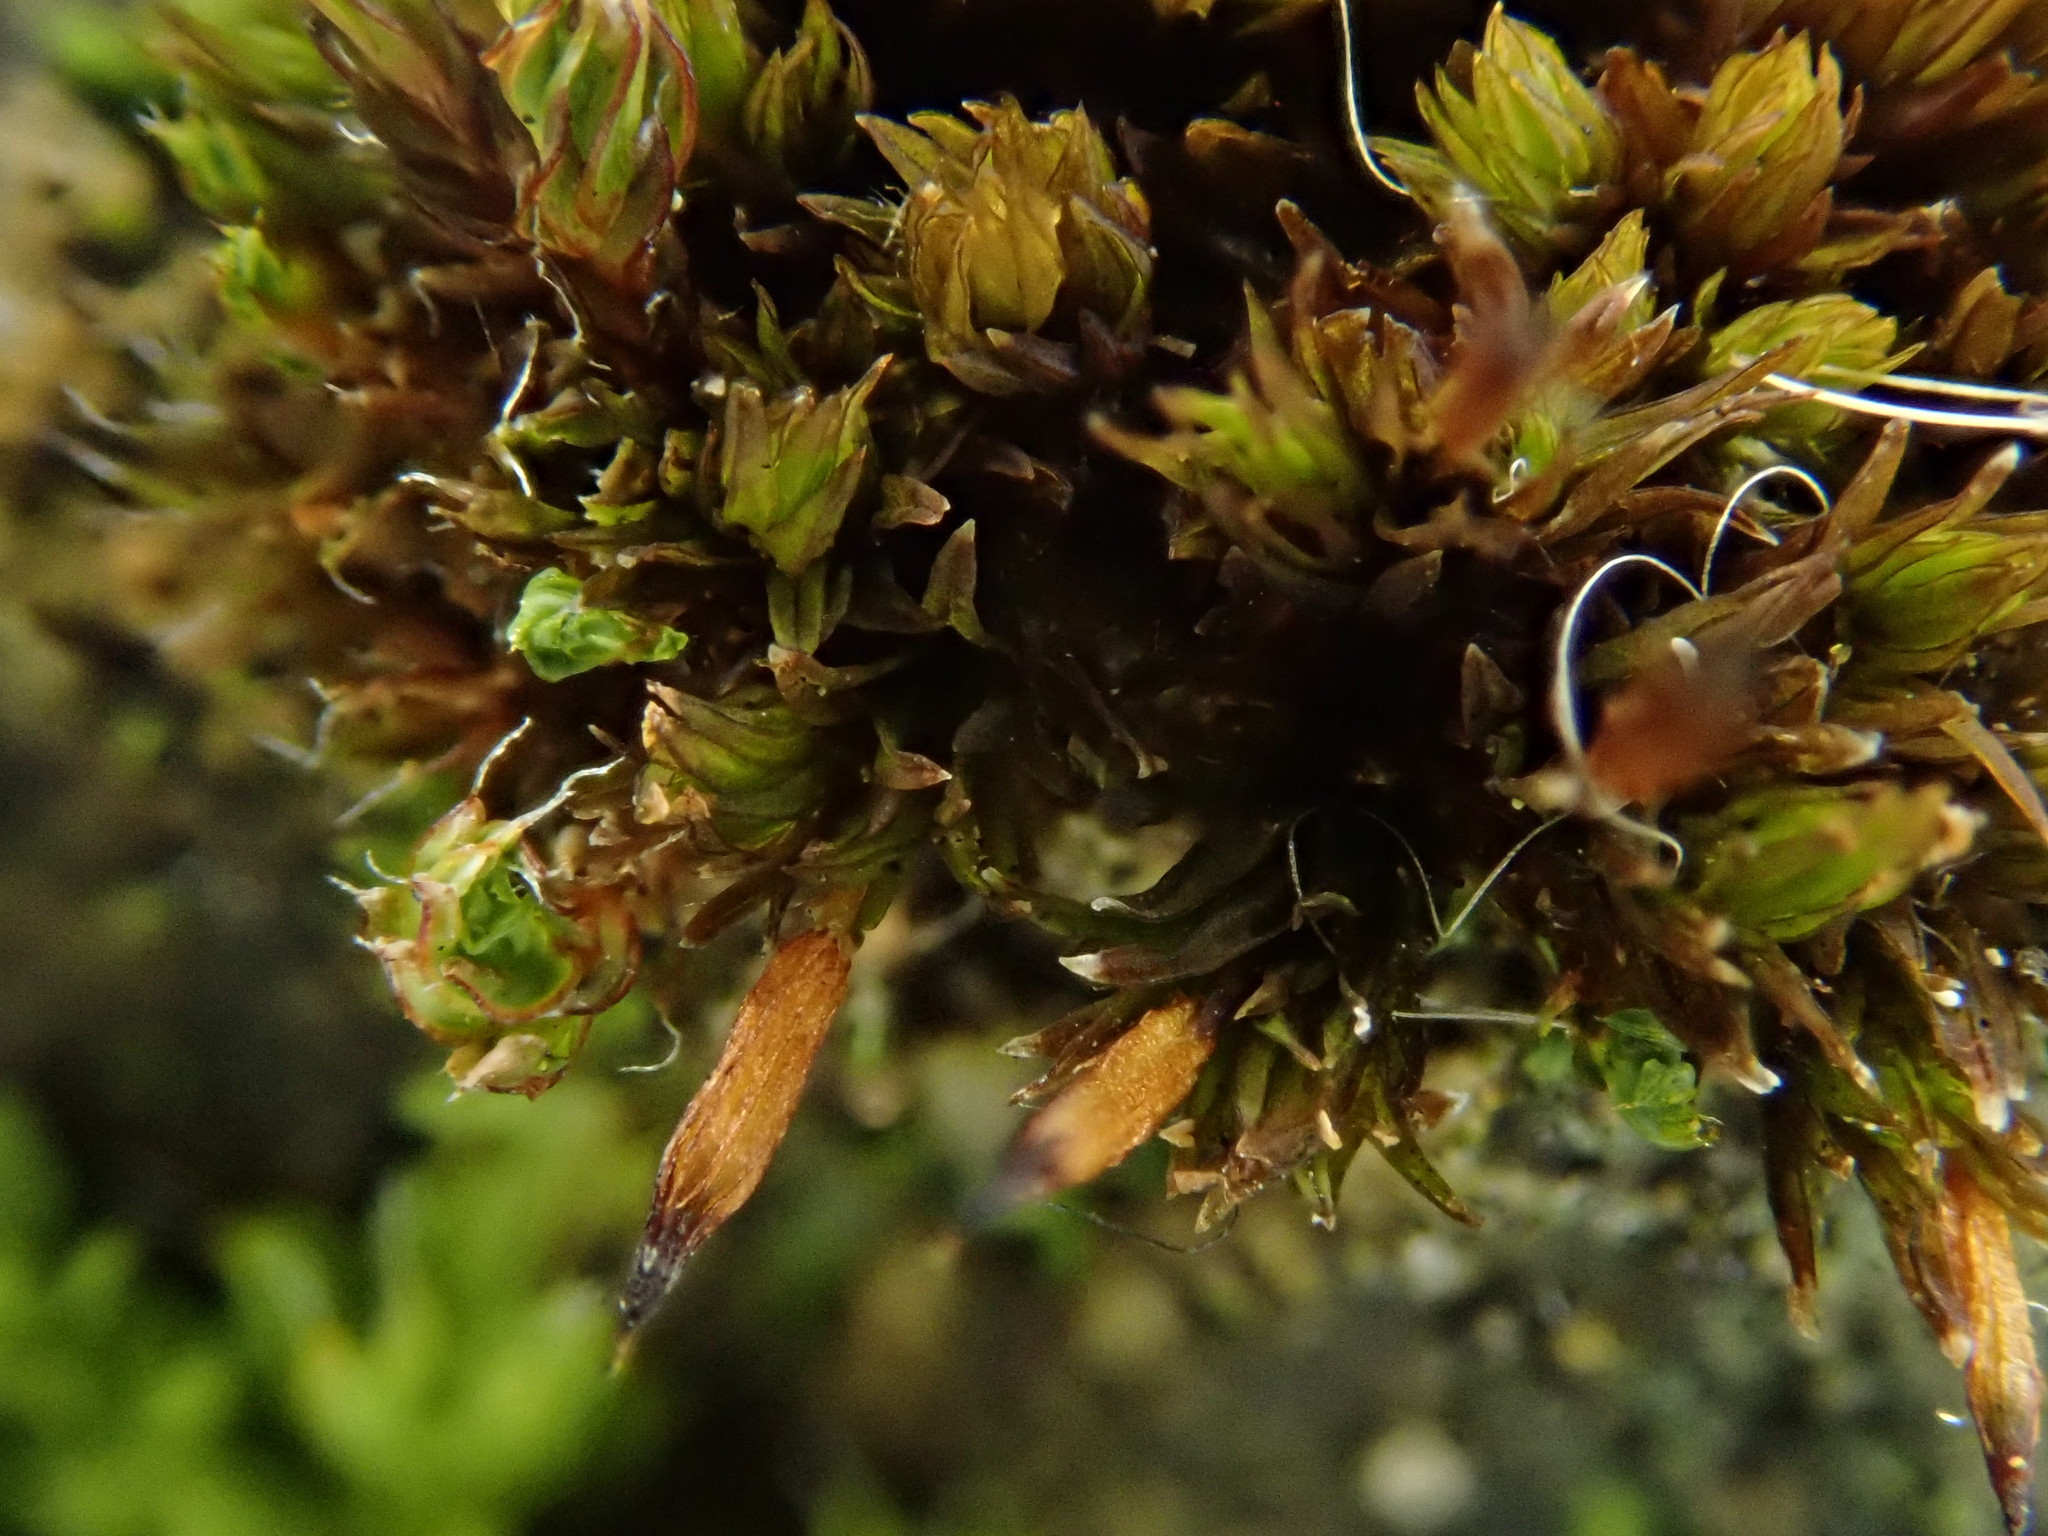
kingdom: Plantae
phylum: Bryophyta
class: Bryopsida
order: Orthotrichales
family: Orthotrichaceae
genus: Orthotrichum
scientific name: Orthotrichum anomalum
